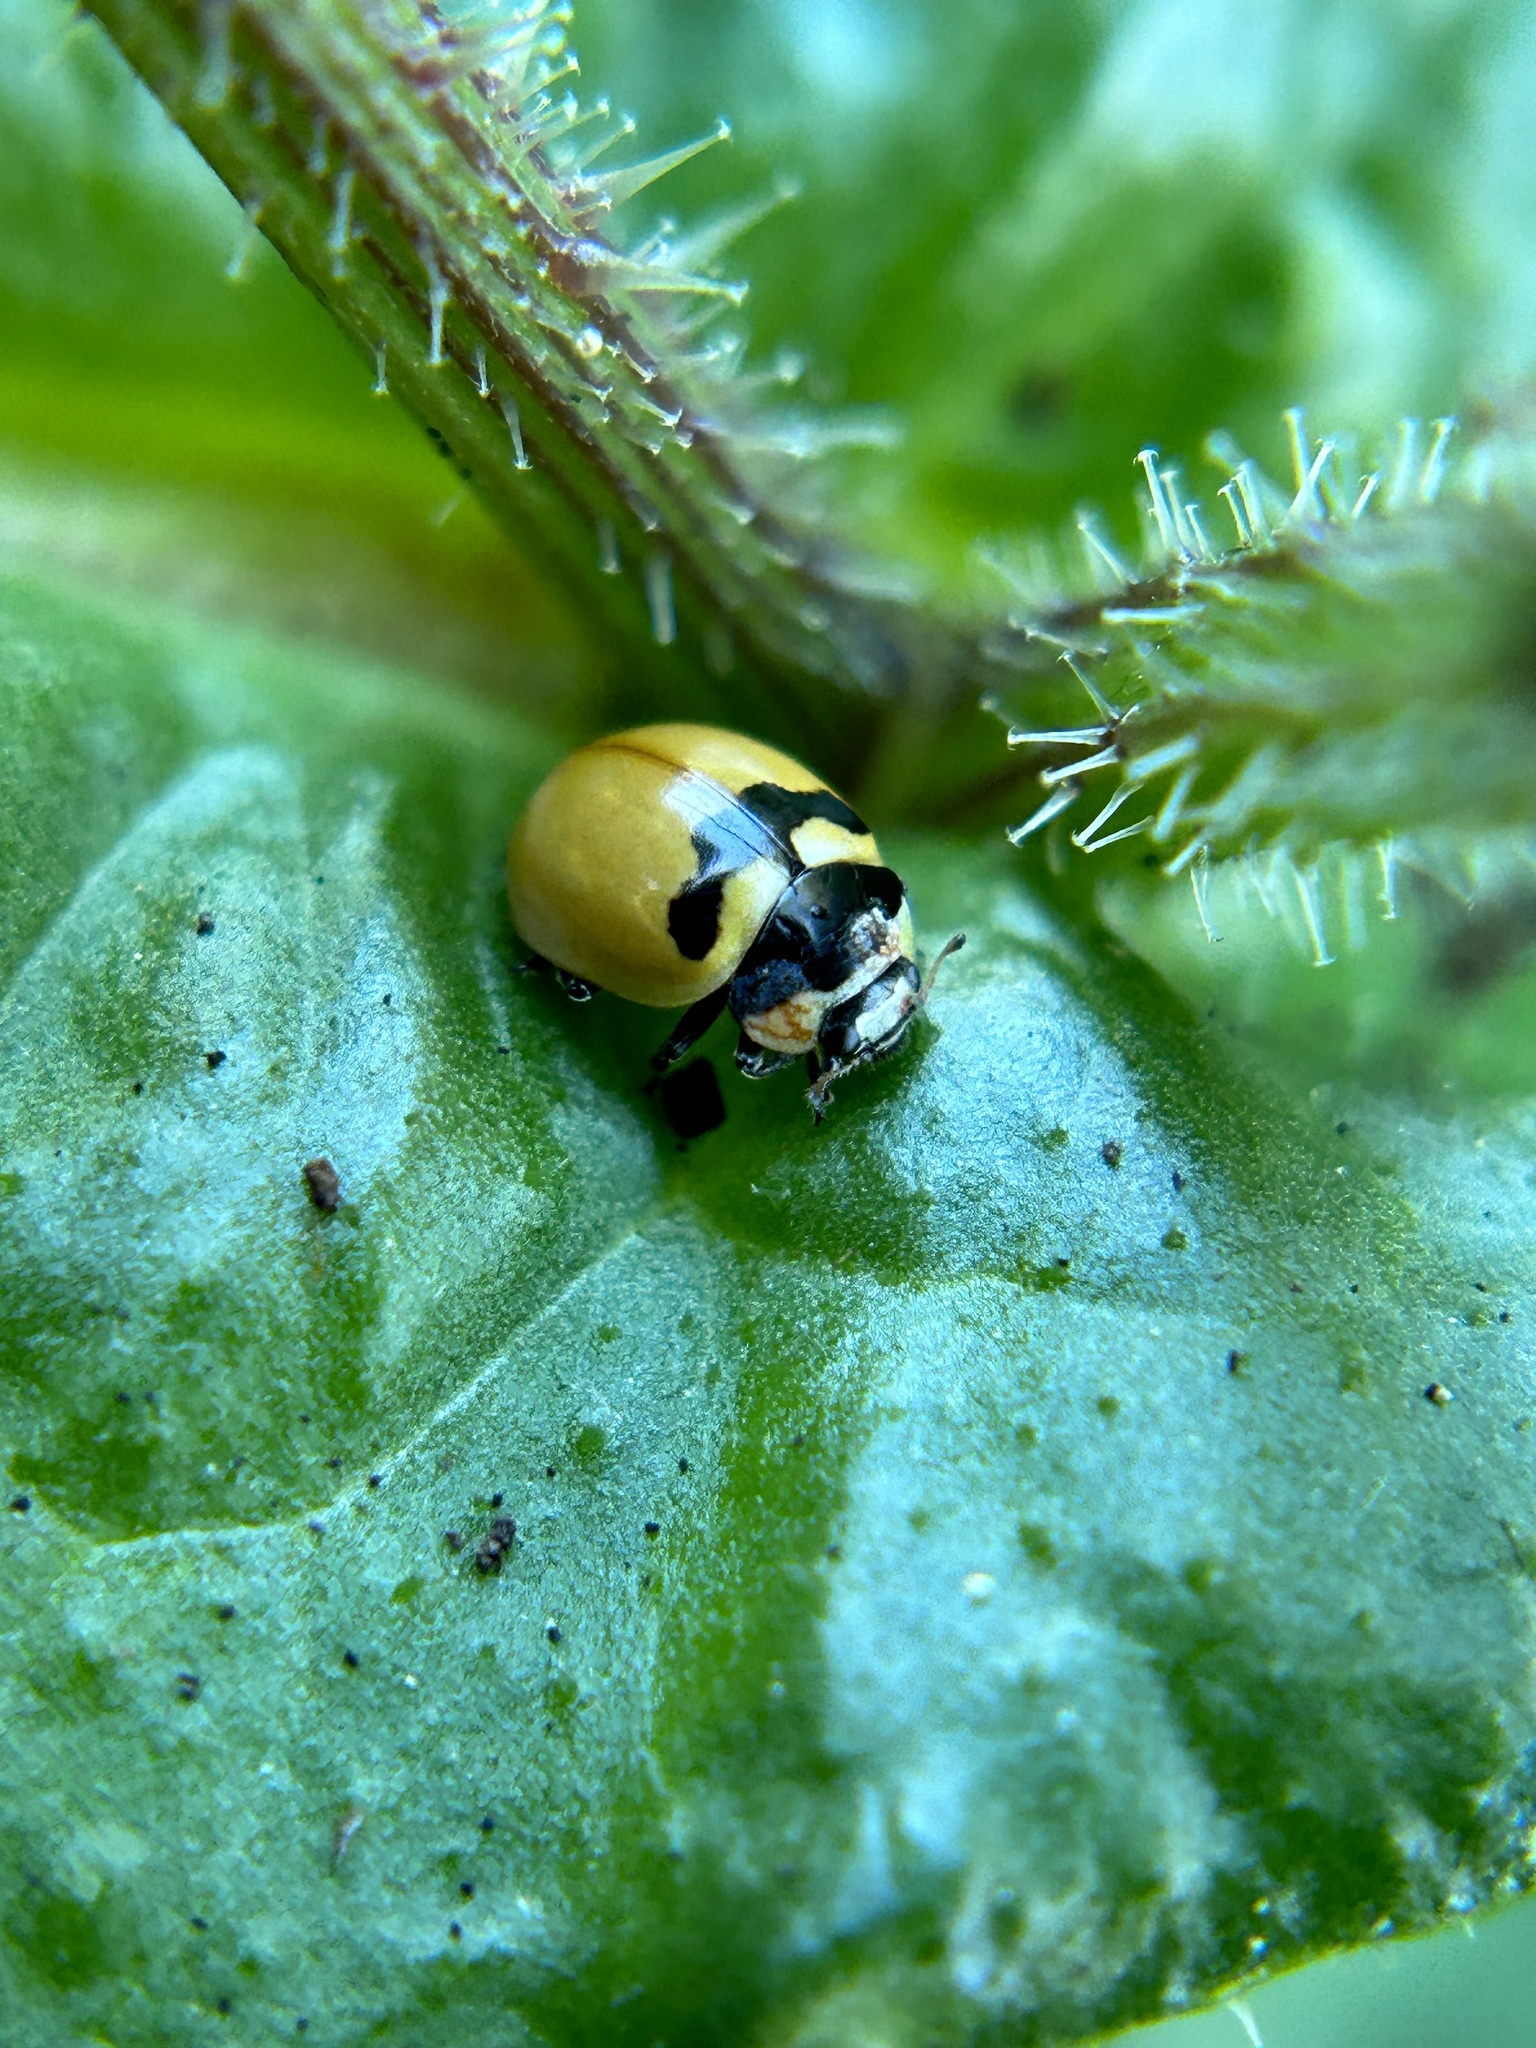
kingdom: Animalia
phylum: Arthropoda
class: Insecta
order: Coleoptera
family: Coccinellidae
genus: Coccinella
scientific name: Coccinella trifasciata
